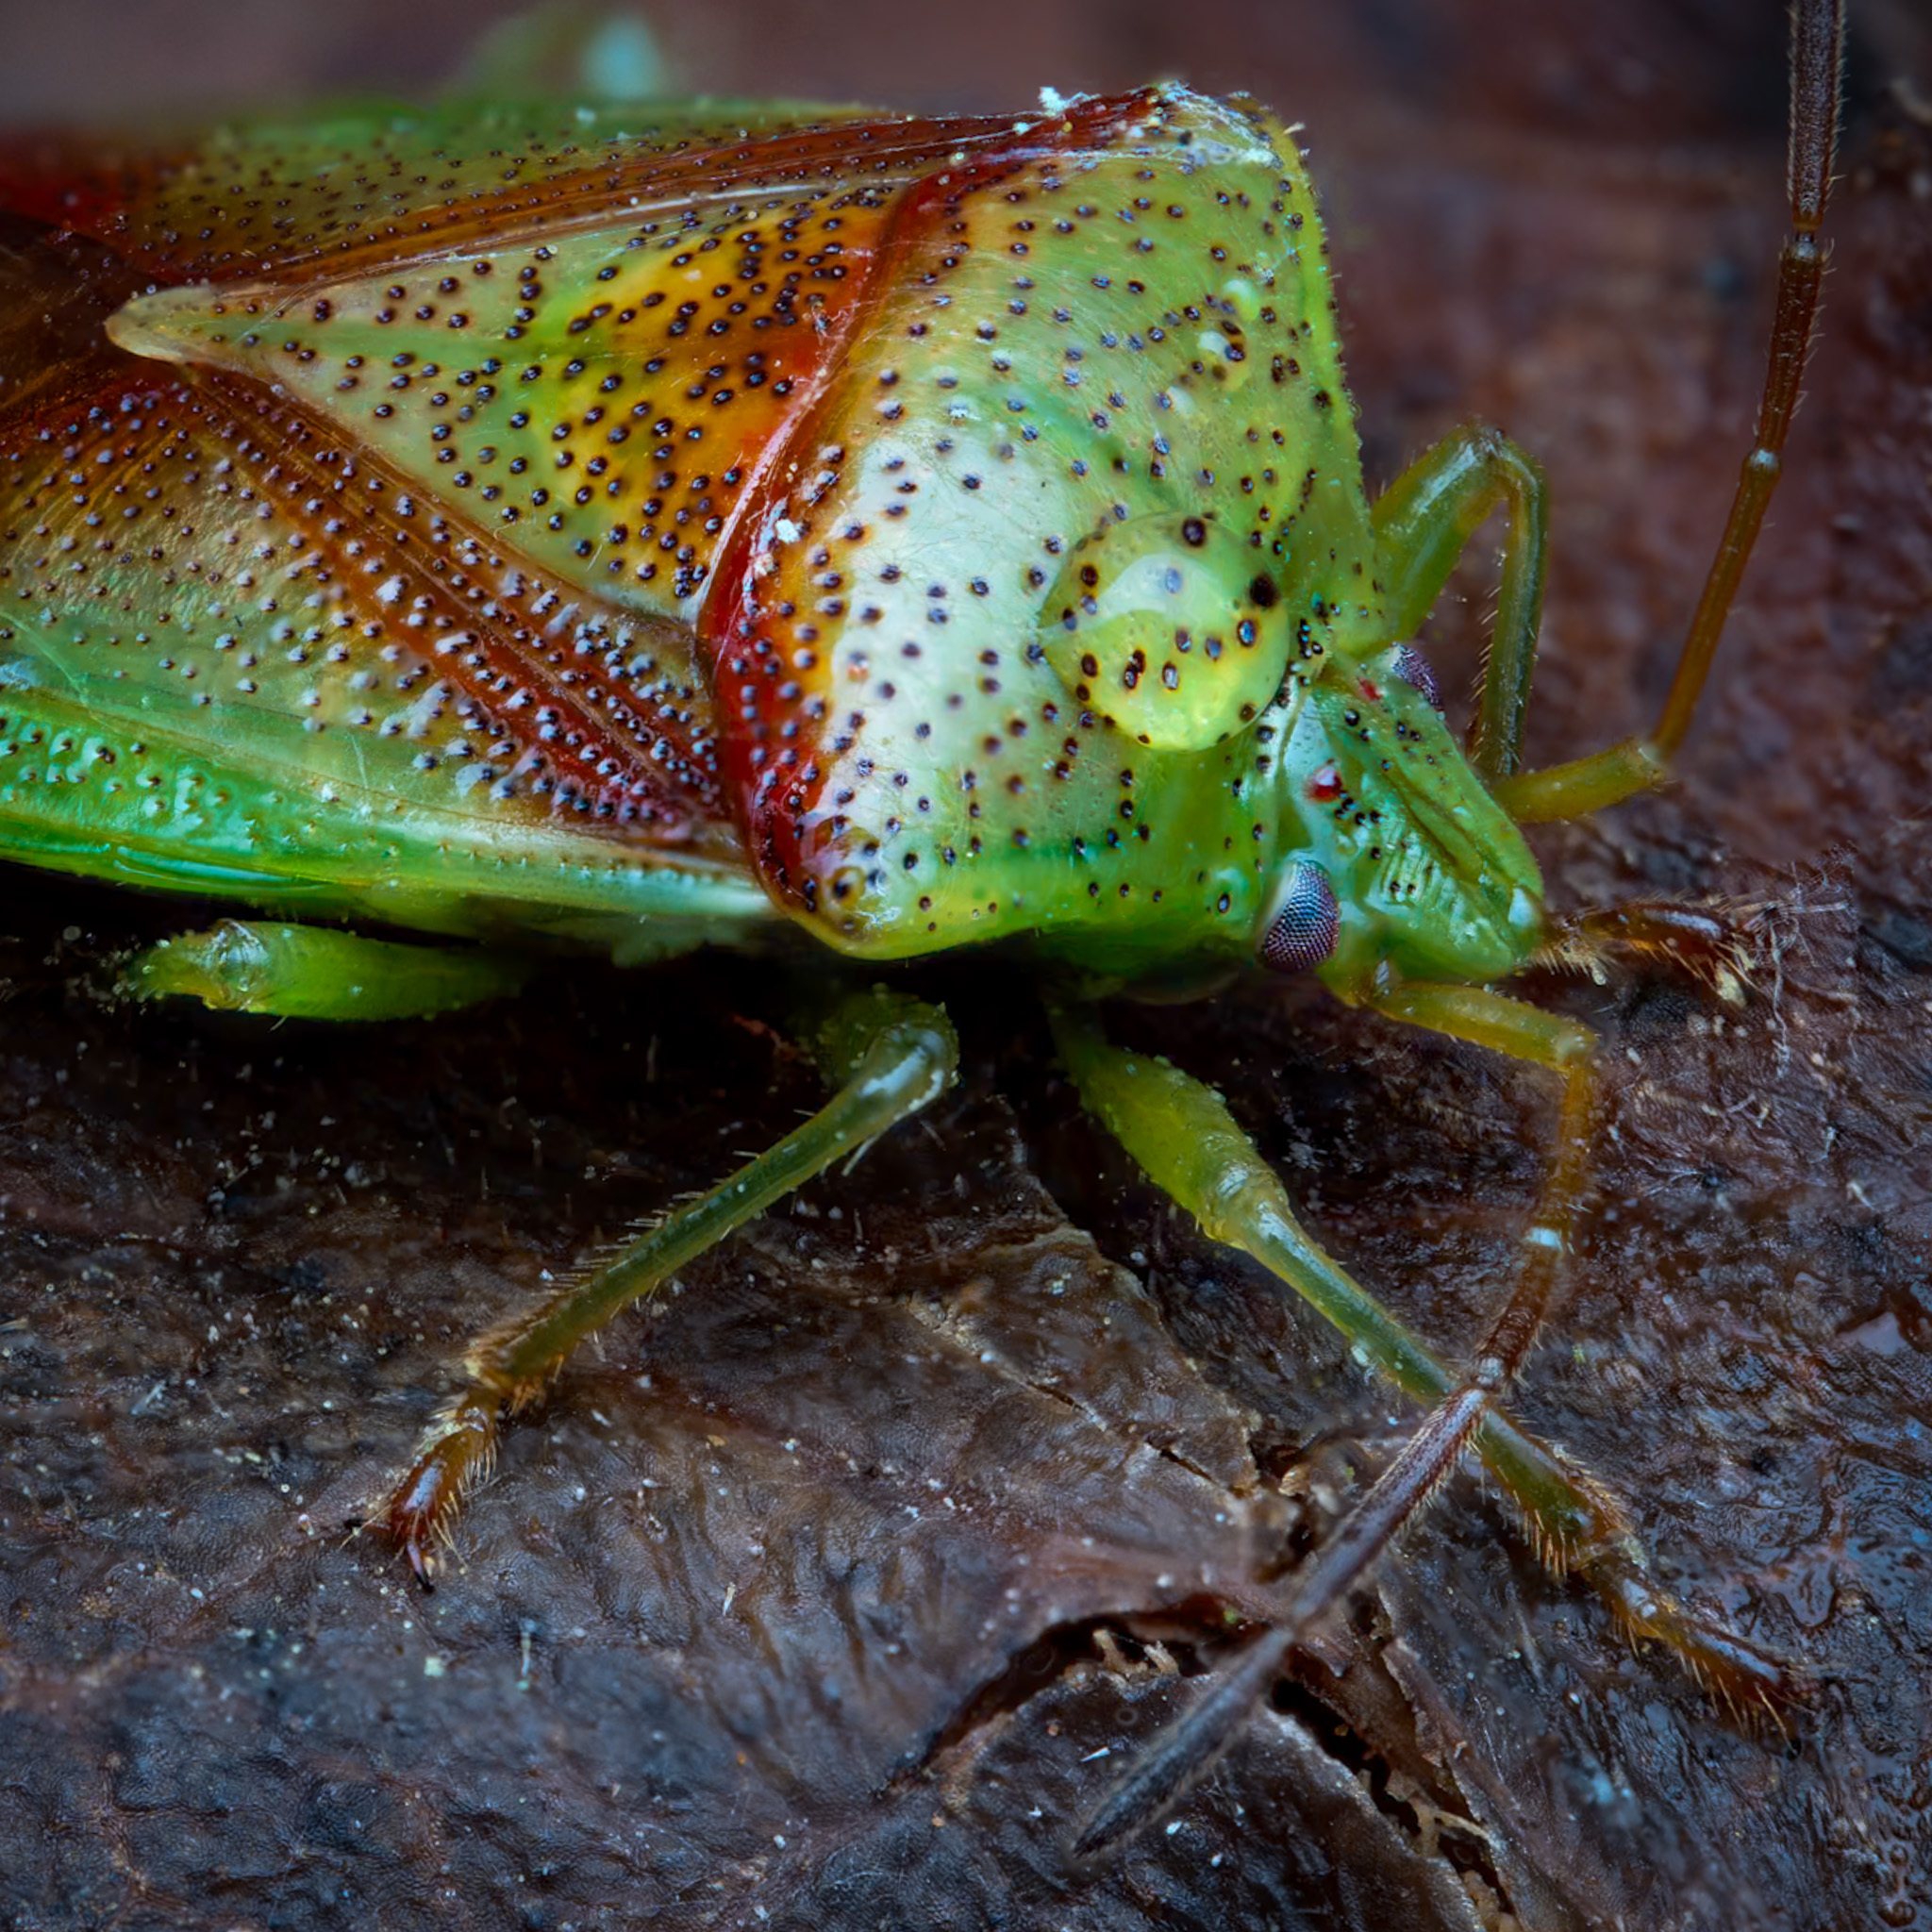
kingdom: Animalia
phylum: Arthropoda
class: Insecta
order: Hemiptera
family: Acanthosomatidae
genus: Elasmostethus
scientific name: Elasmostethus cruciatus
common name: Red-cross shield bug
